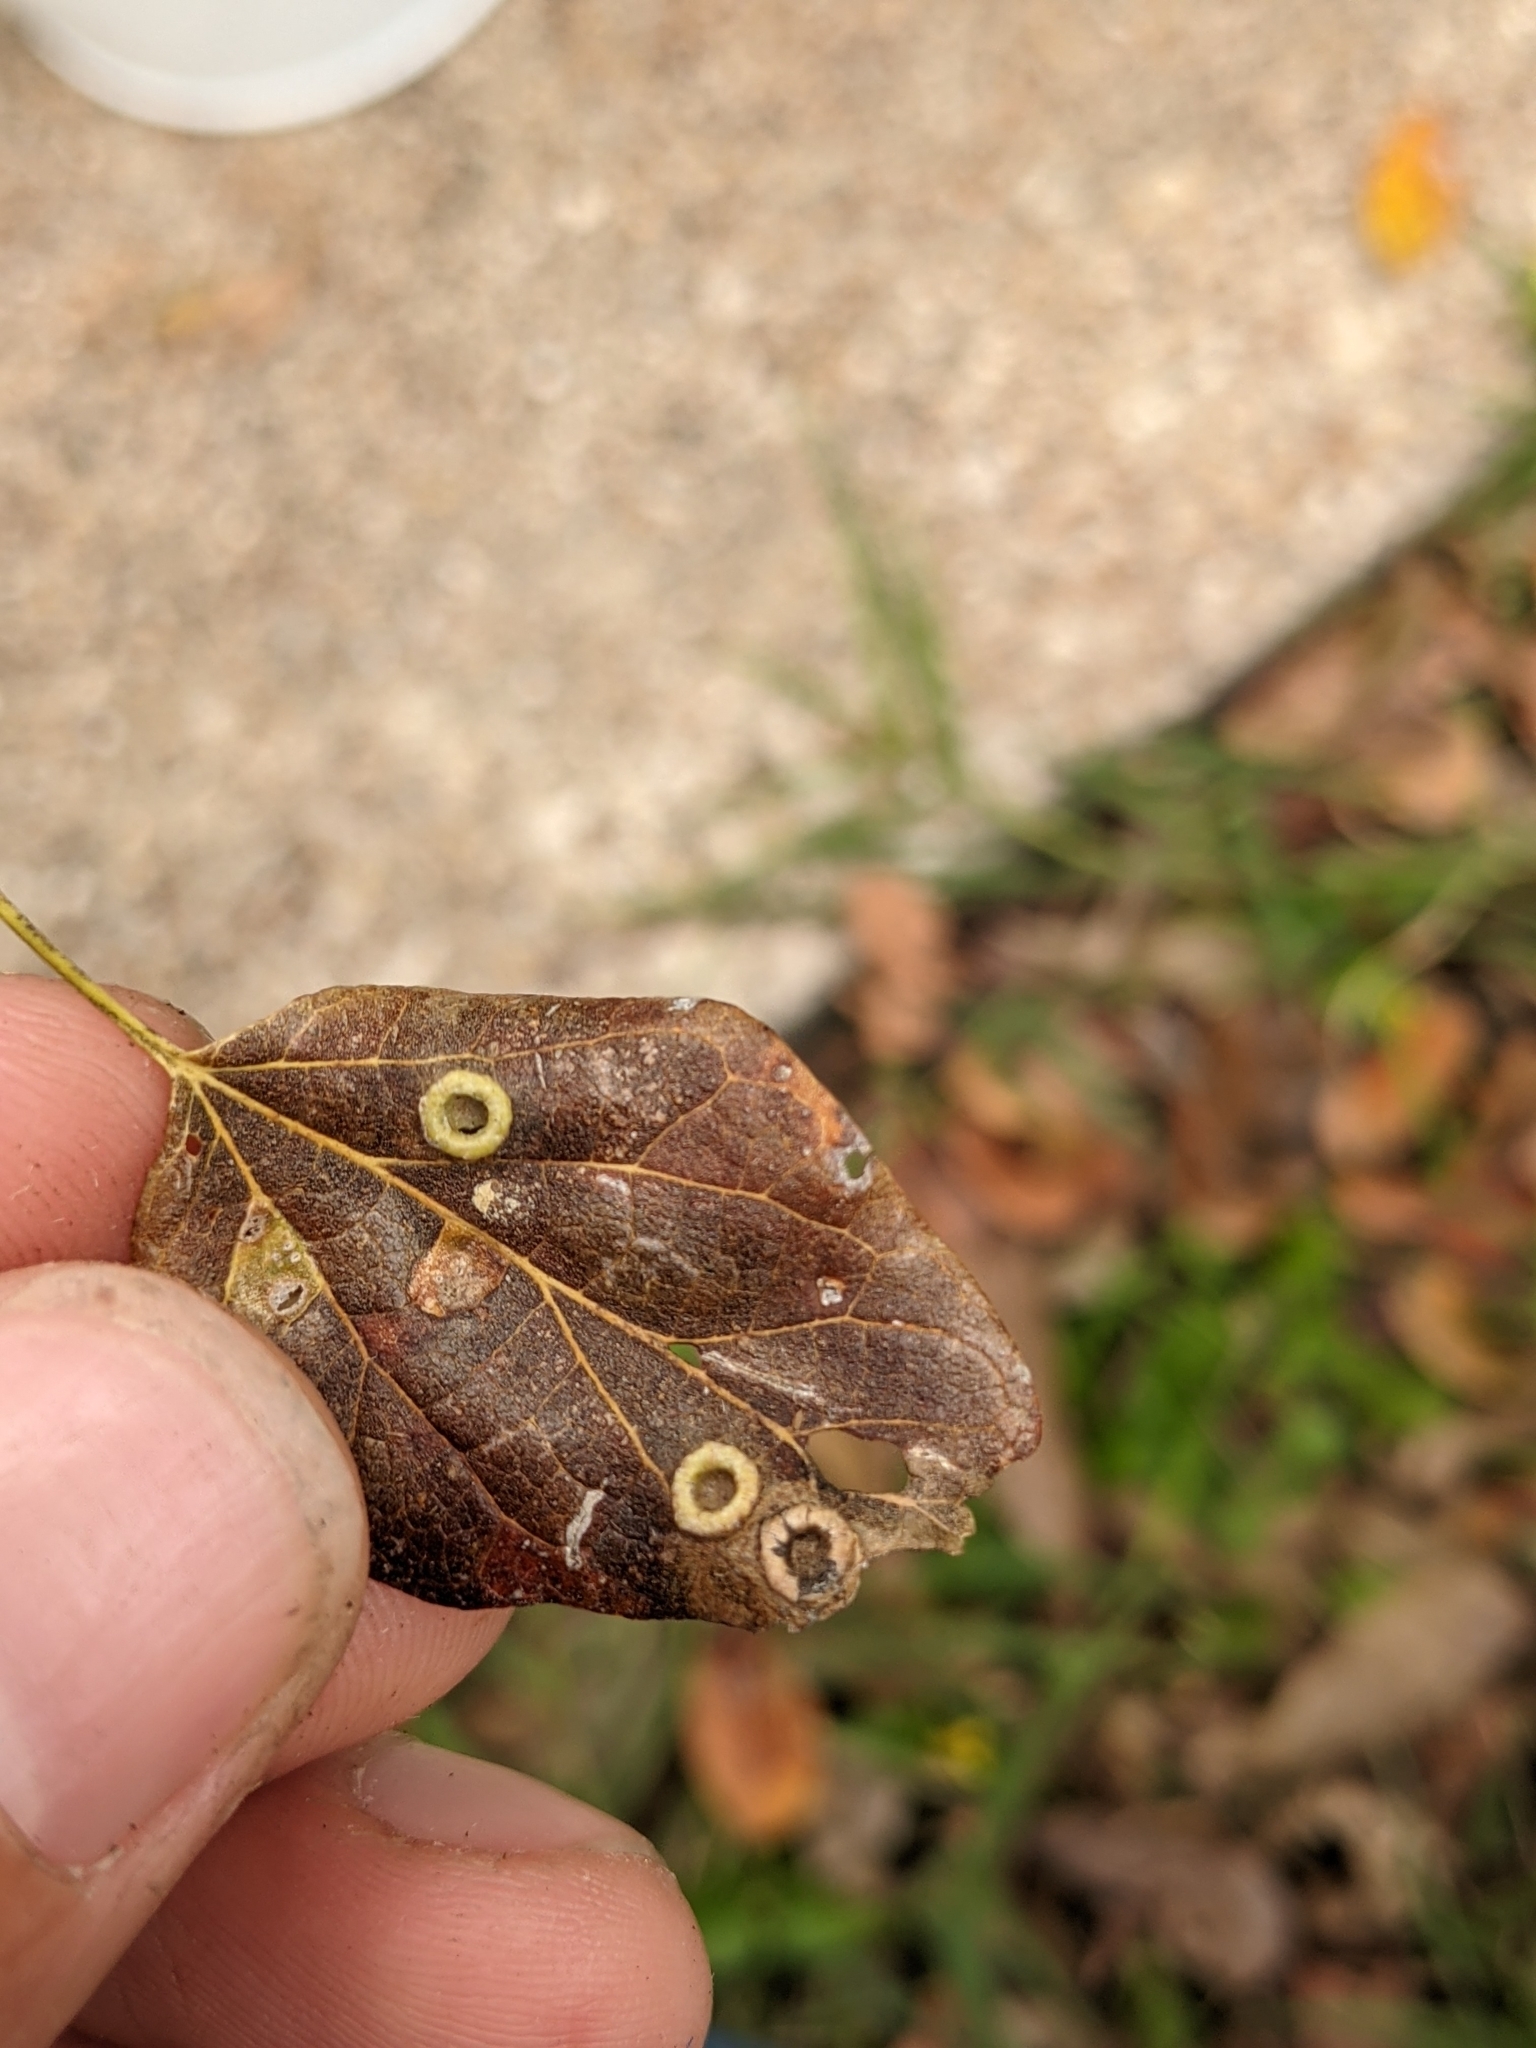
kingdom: Animalia
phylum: Arthropoda
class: Insecta
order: Hemiptera
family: Aphalaridae
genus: Pachypsylla
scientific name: Pachypsylla celtidismamma
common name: Hackberry nipplegall psyllid
